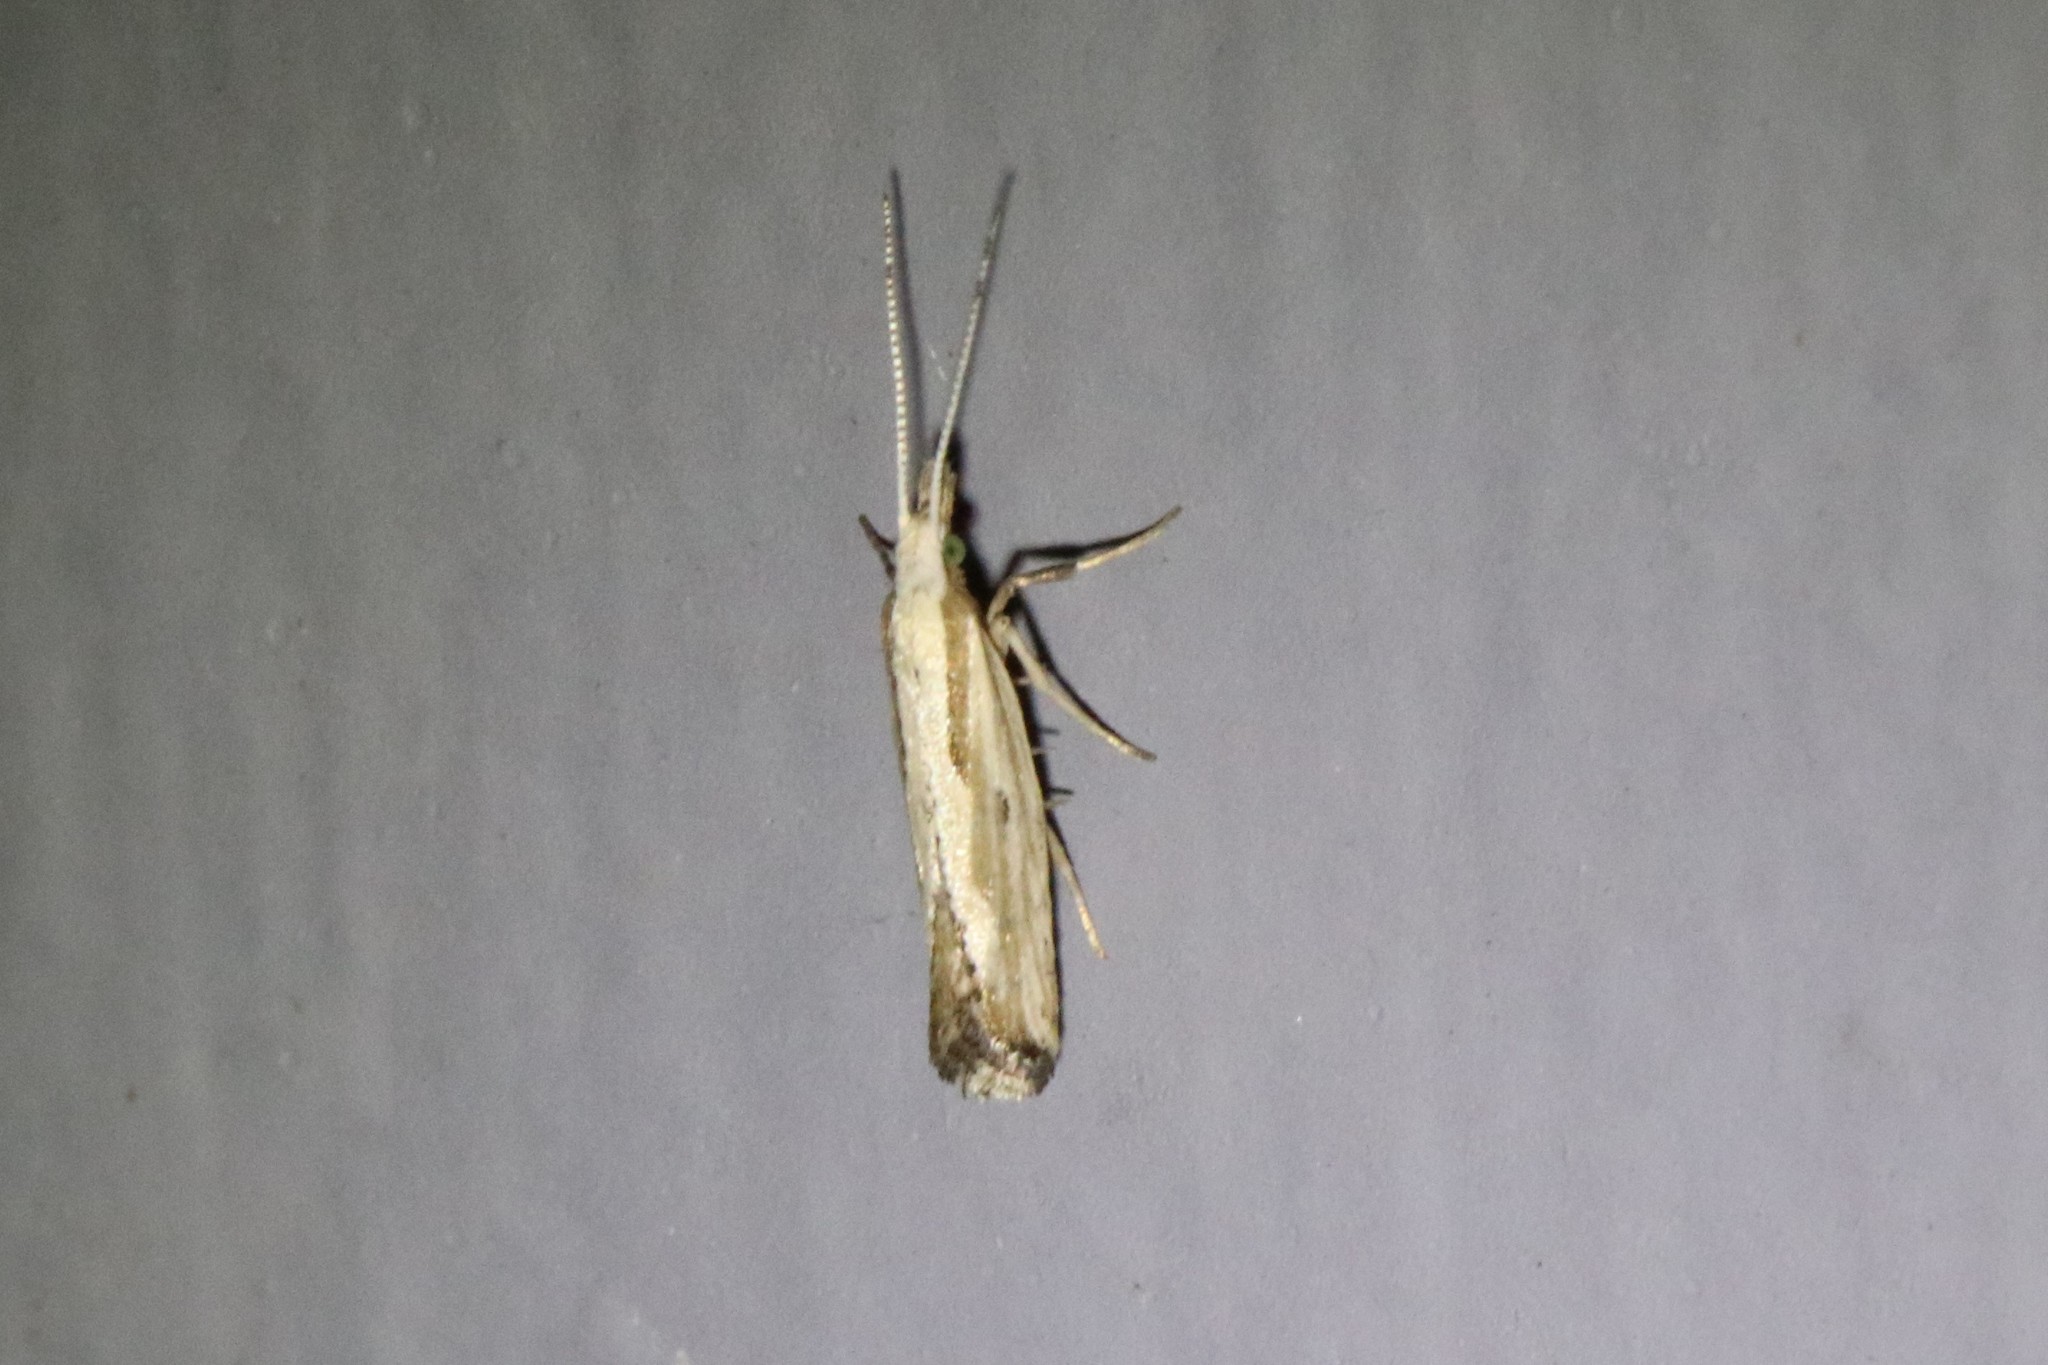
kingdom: Animalia
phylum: Arthropoda
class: Insecta
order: Lepidoptera
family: Plutellidae
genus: Plutella
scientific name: Plutella xylostella
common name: Diamond-back moth
